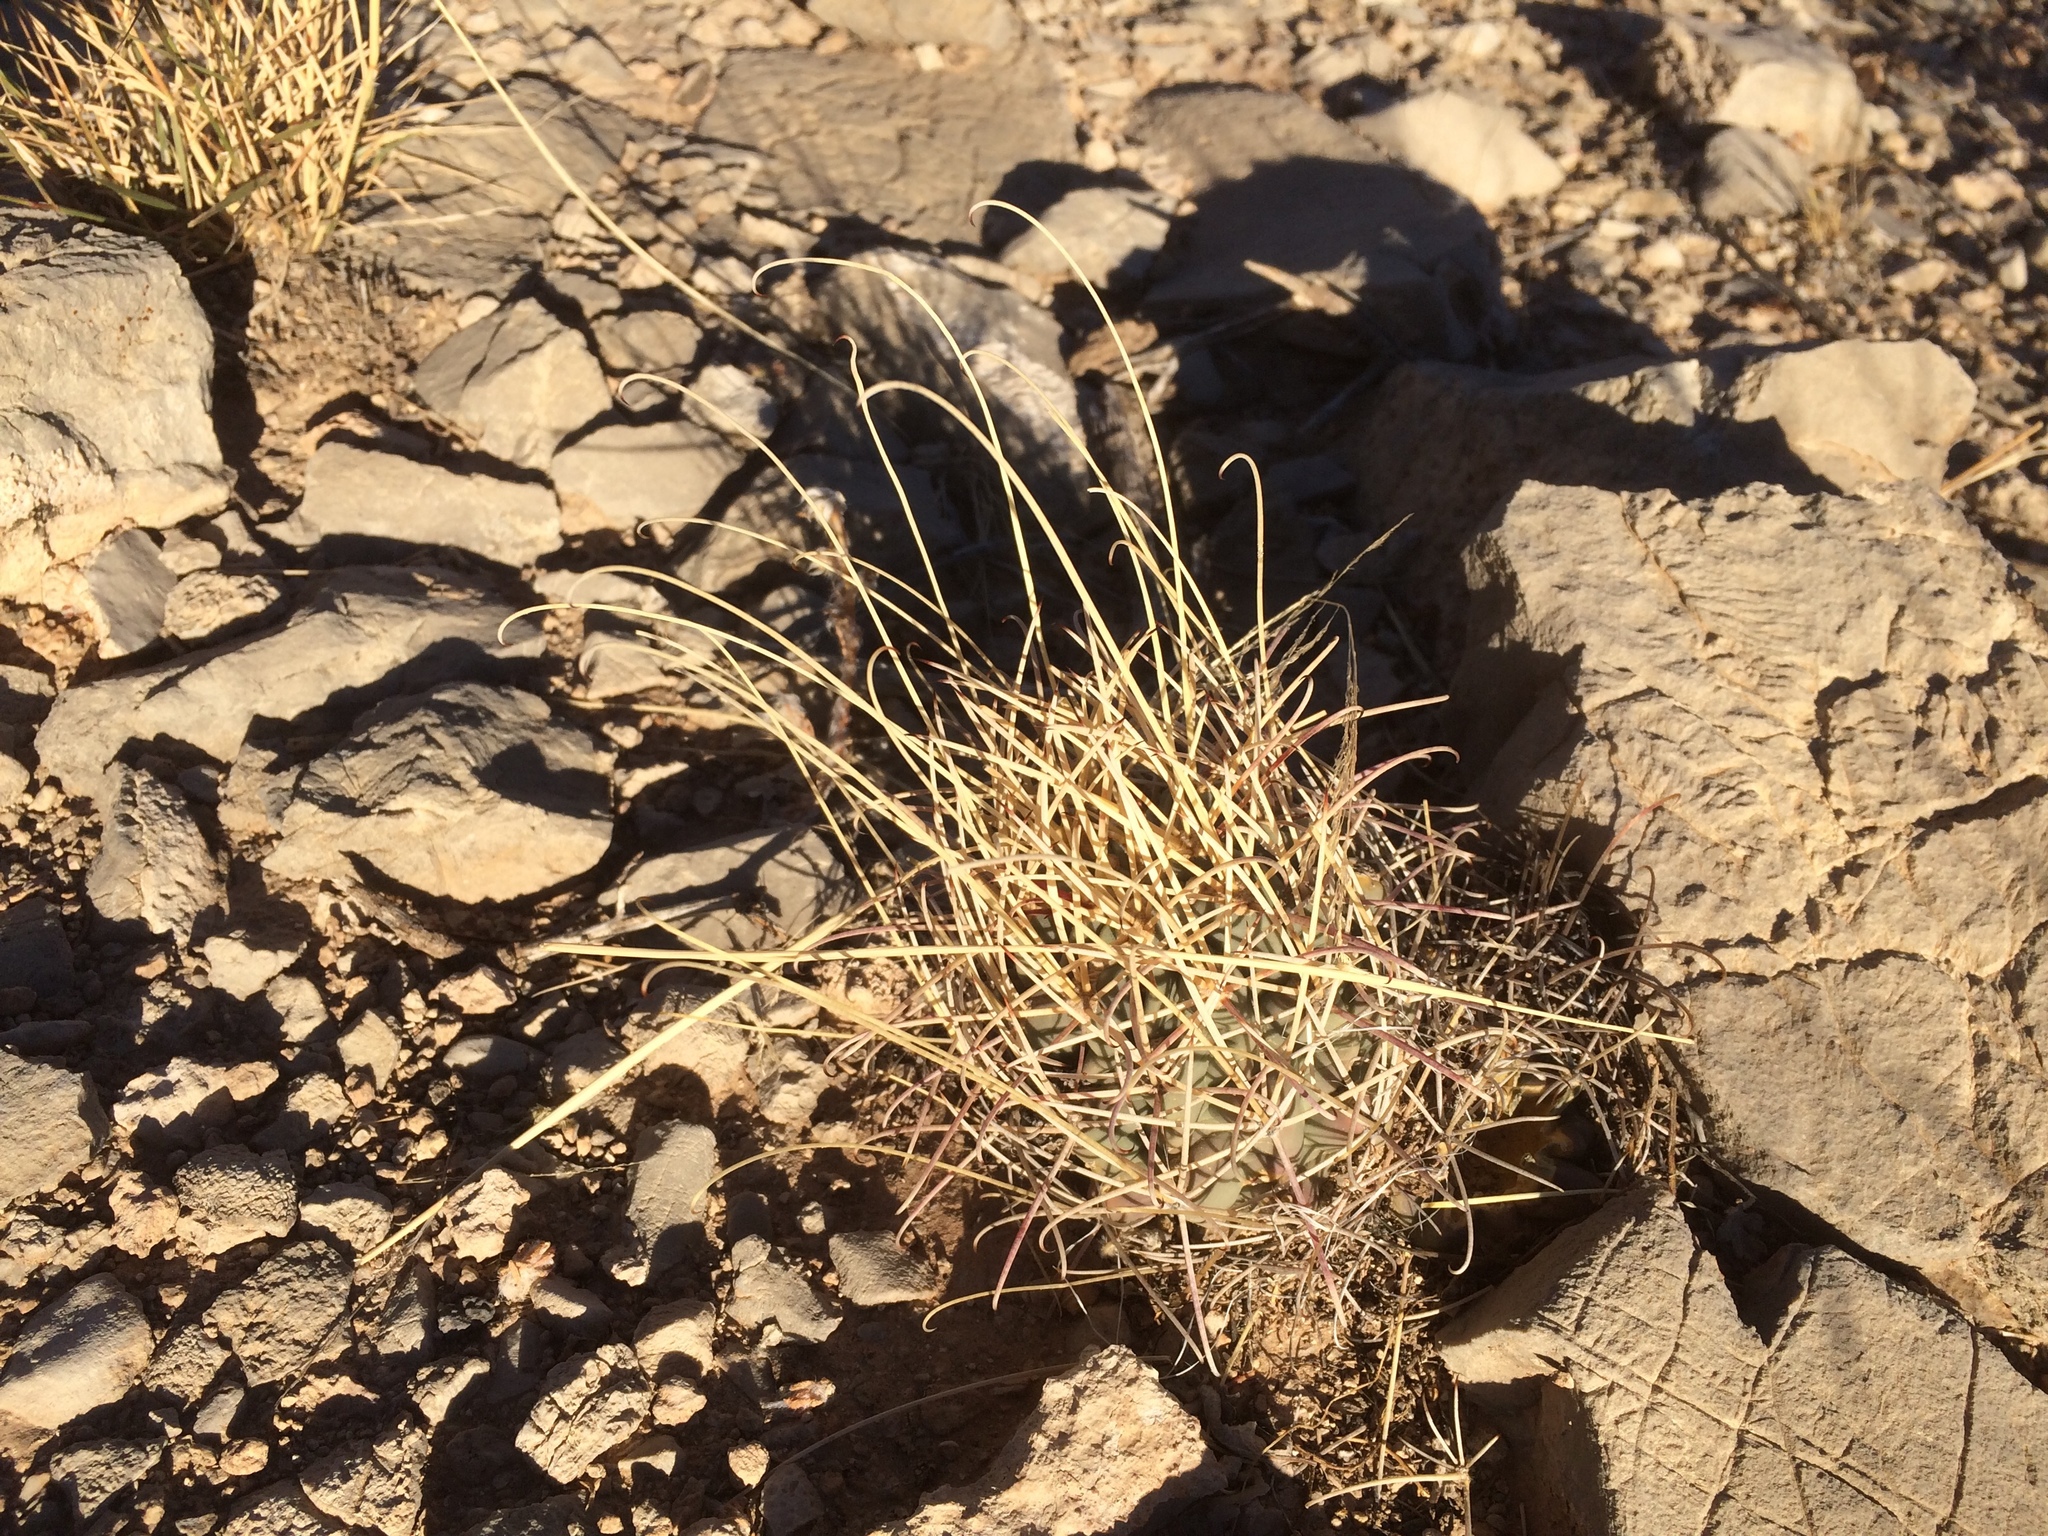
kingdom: Plantae
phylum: Tracheophyta
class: Magnoliopsida
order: Caryophyllales
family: Cactaceae
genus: Ferocactus
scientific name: Ferocactus uncinatus
